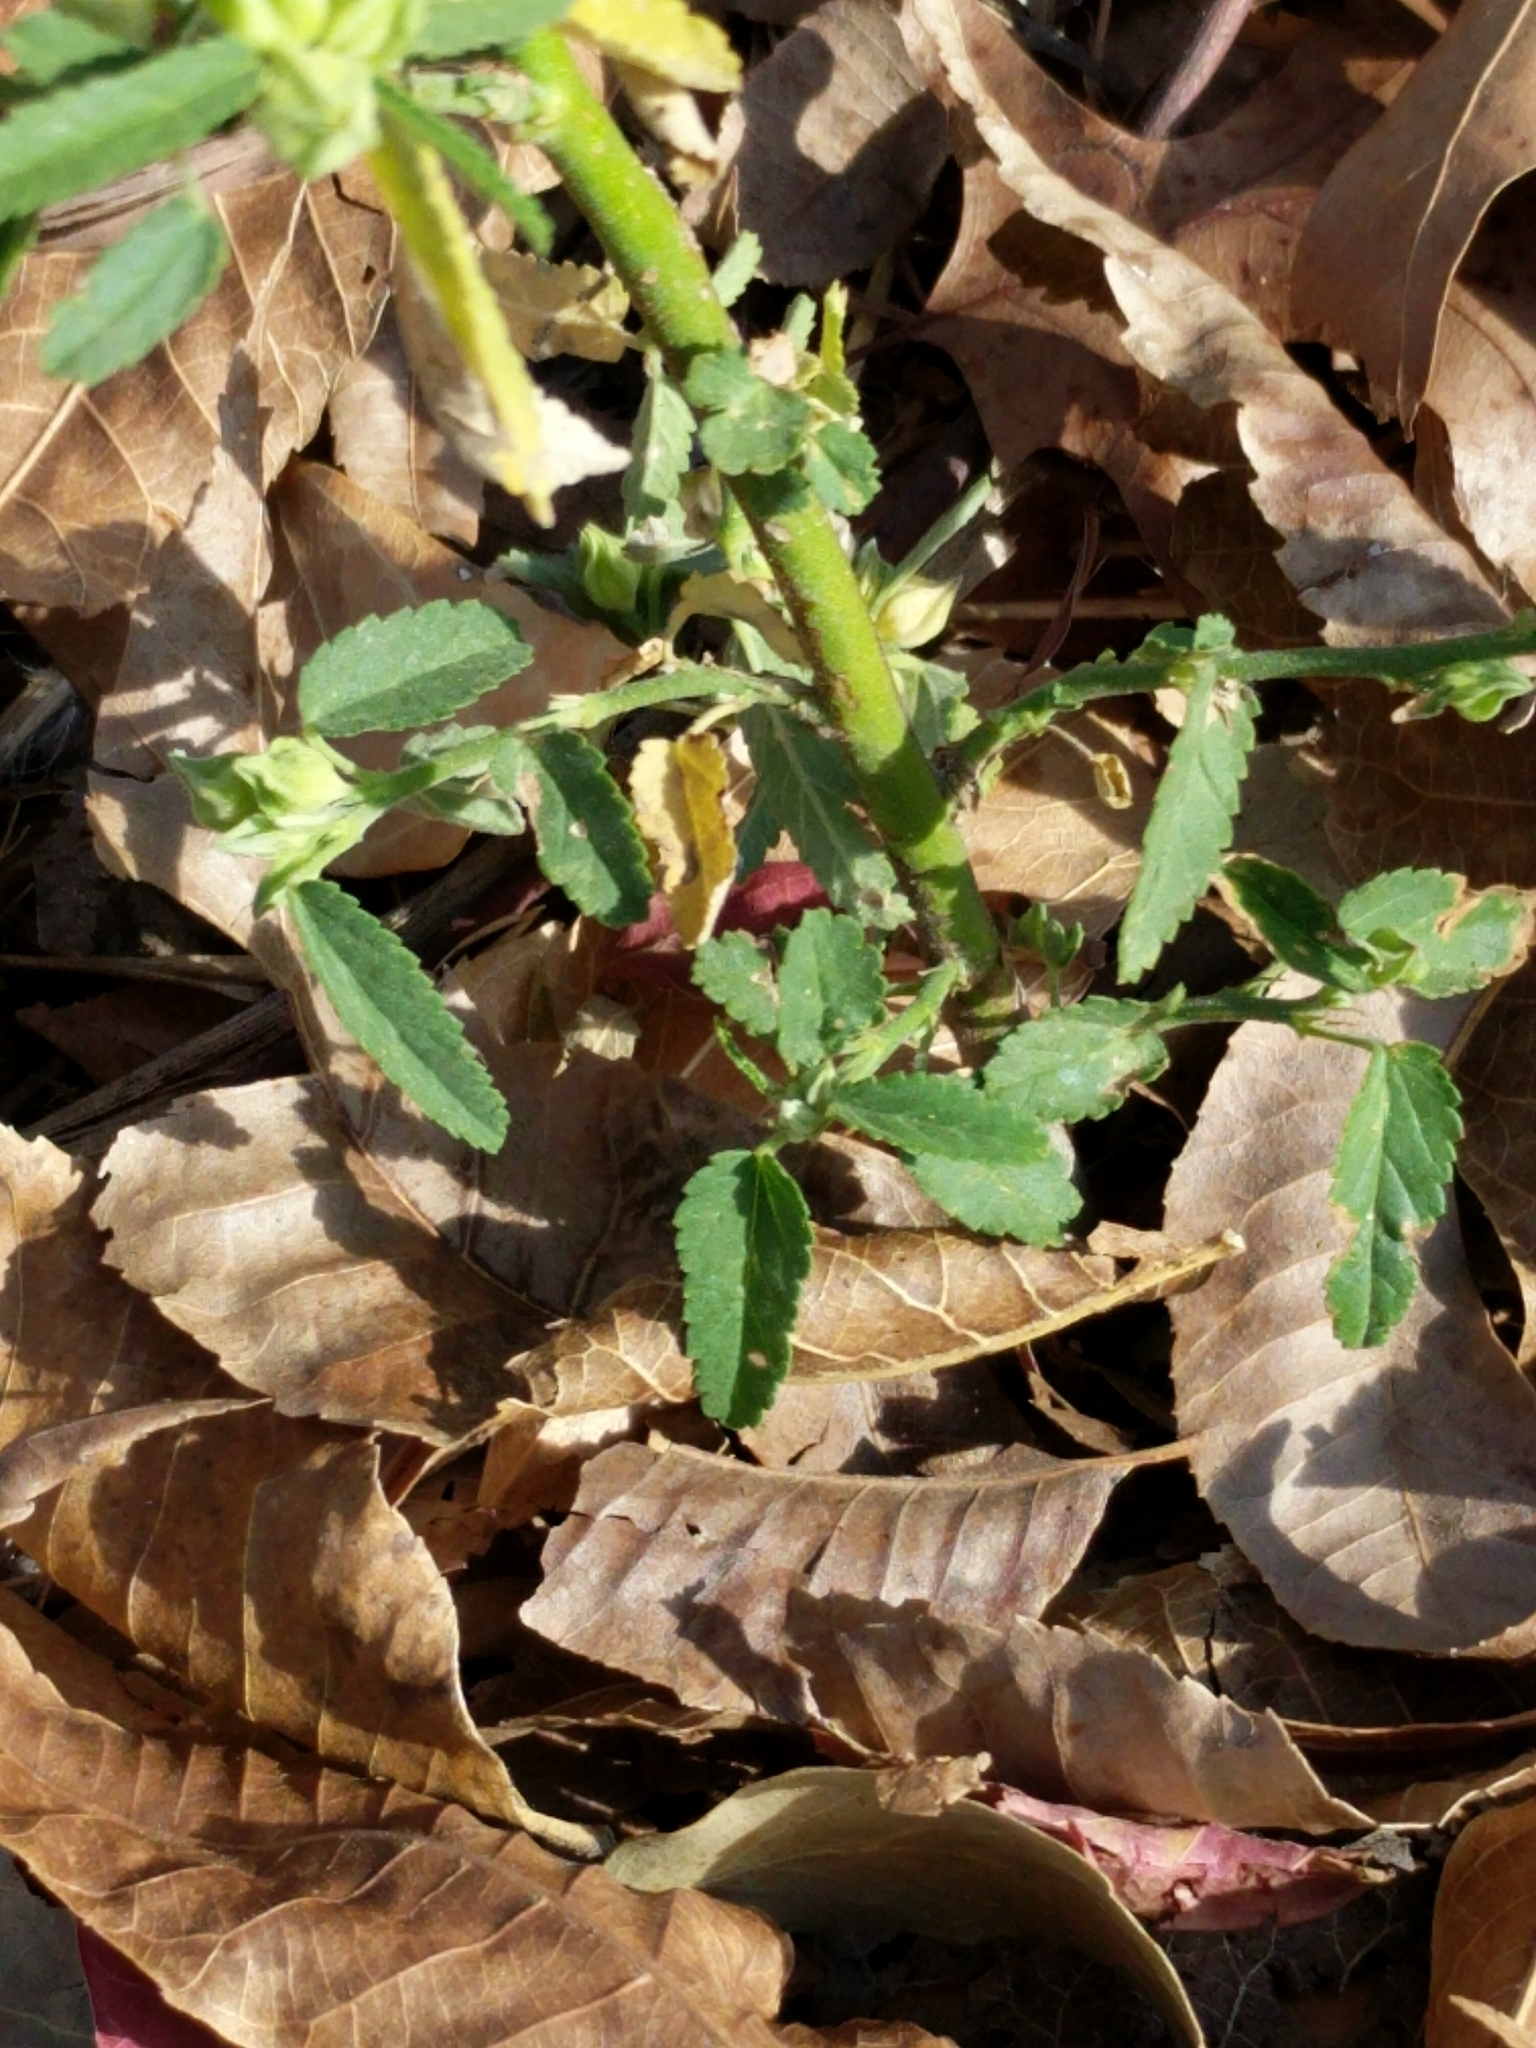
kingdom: Plantae
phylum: Tracheophyta
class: Magnoliopsida
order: Malvales
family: Malvaceae
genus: Sida
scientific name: Sida spinosa
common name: Prickly fanpetals
